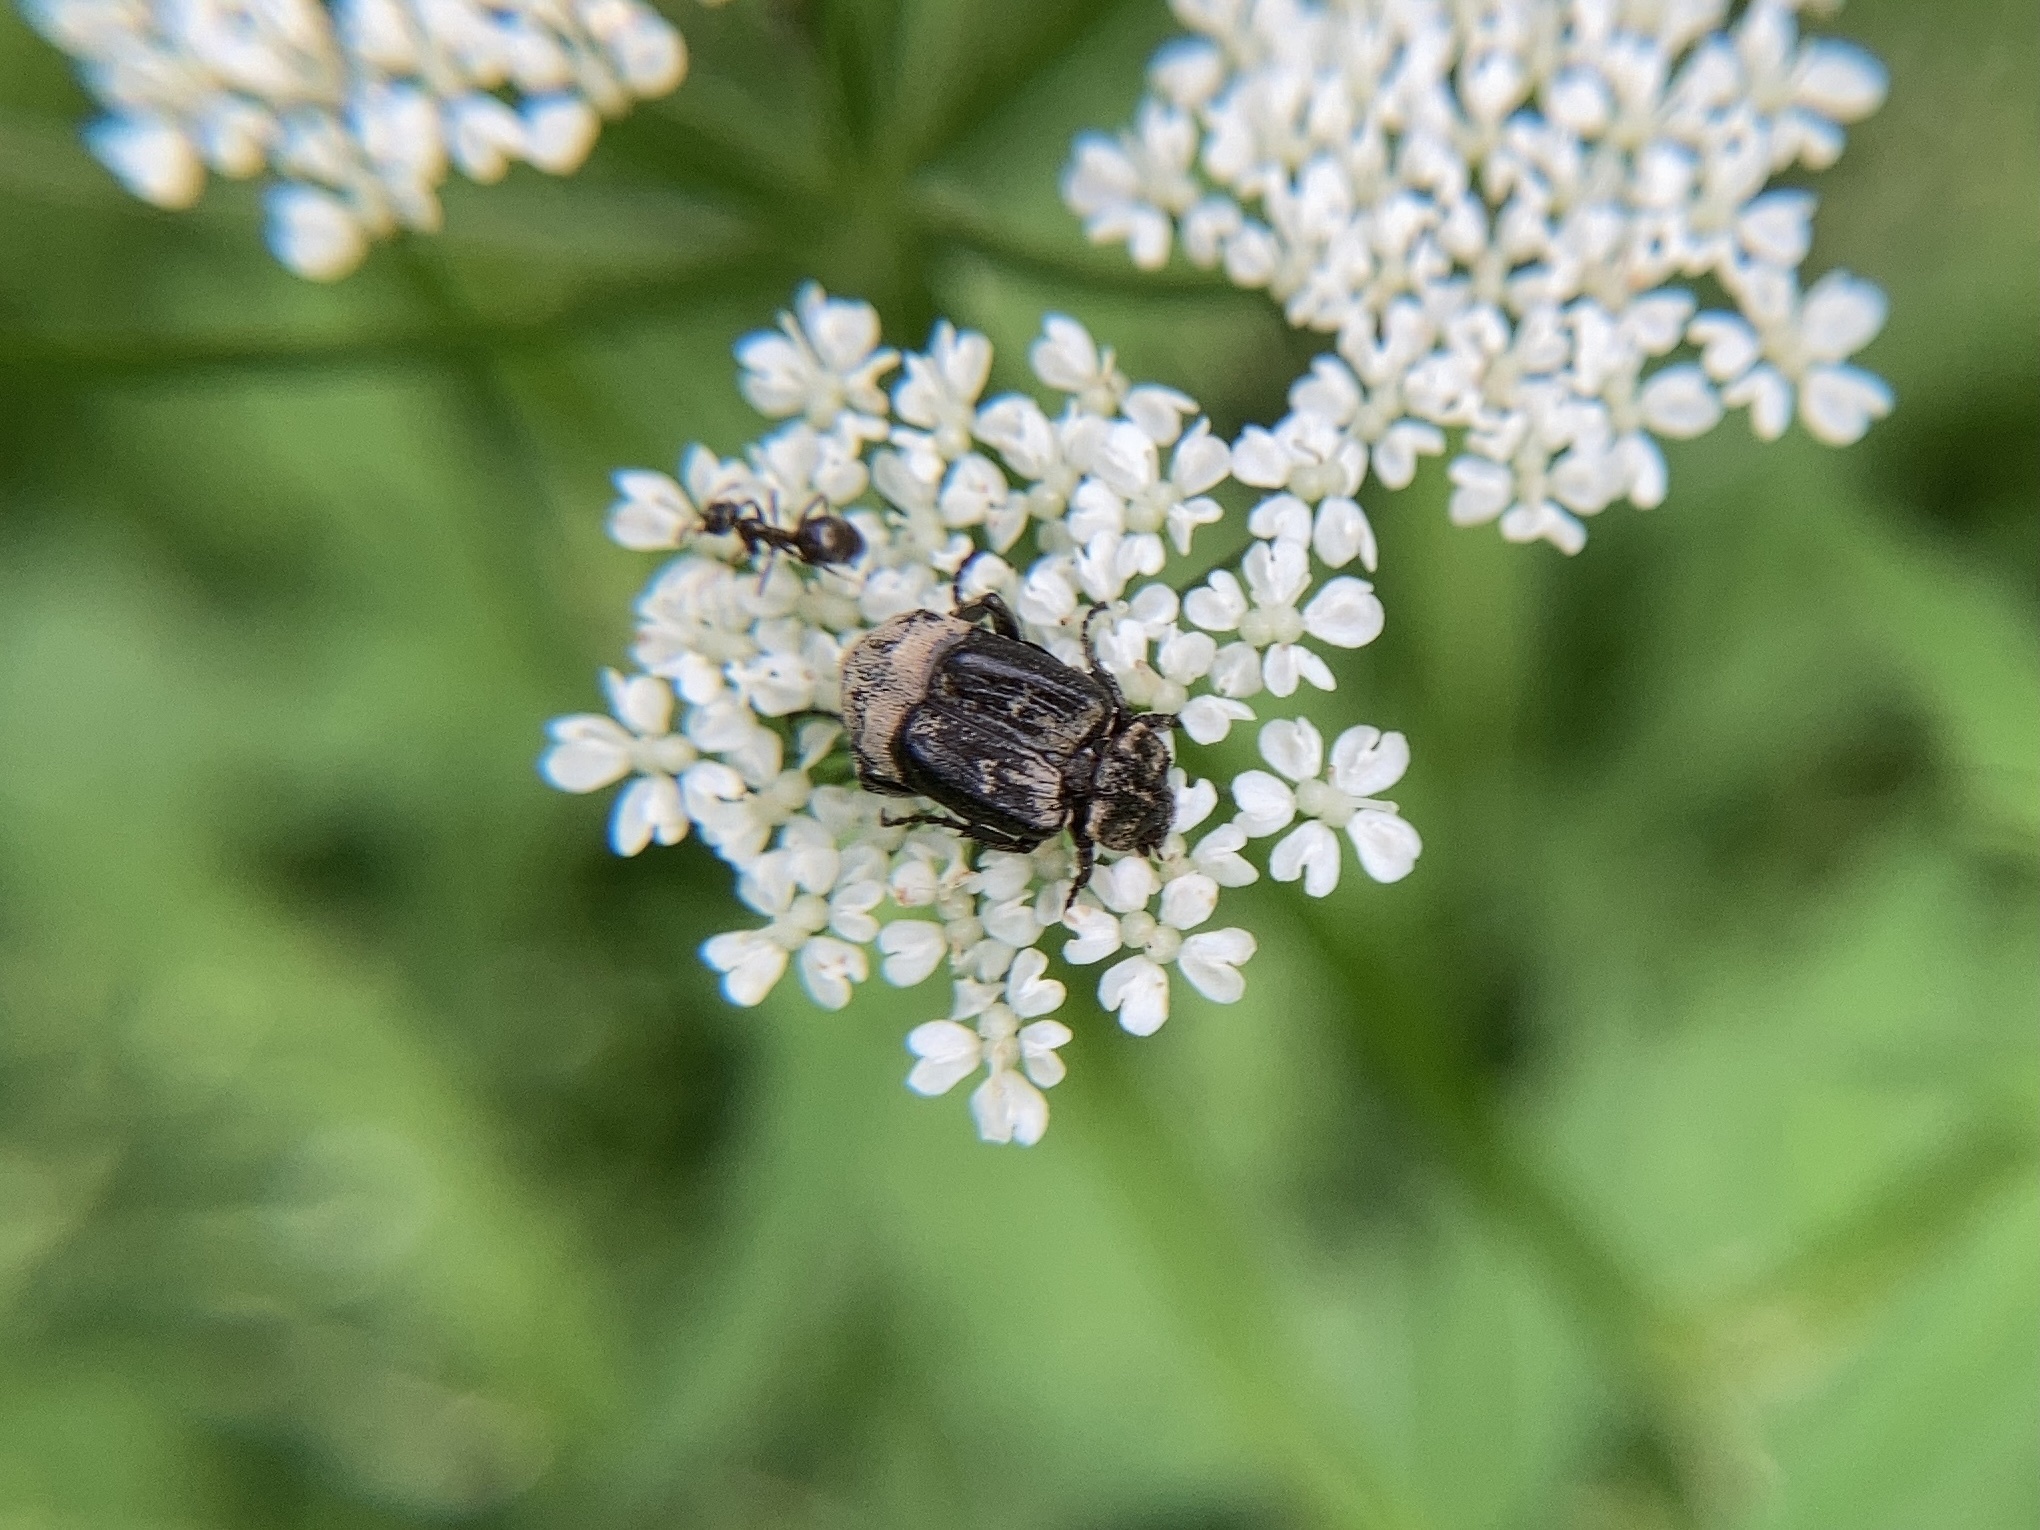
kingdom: Animalia
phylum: Arthropoda
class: Insecta
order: Coleoptera
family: Scarabaeidae
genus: Valgus
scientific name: Valgus hemipterus
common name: Bug flower chafer
